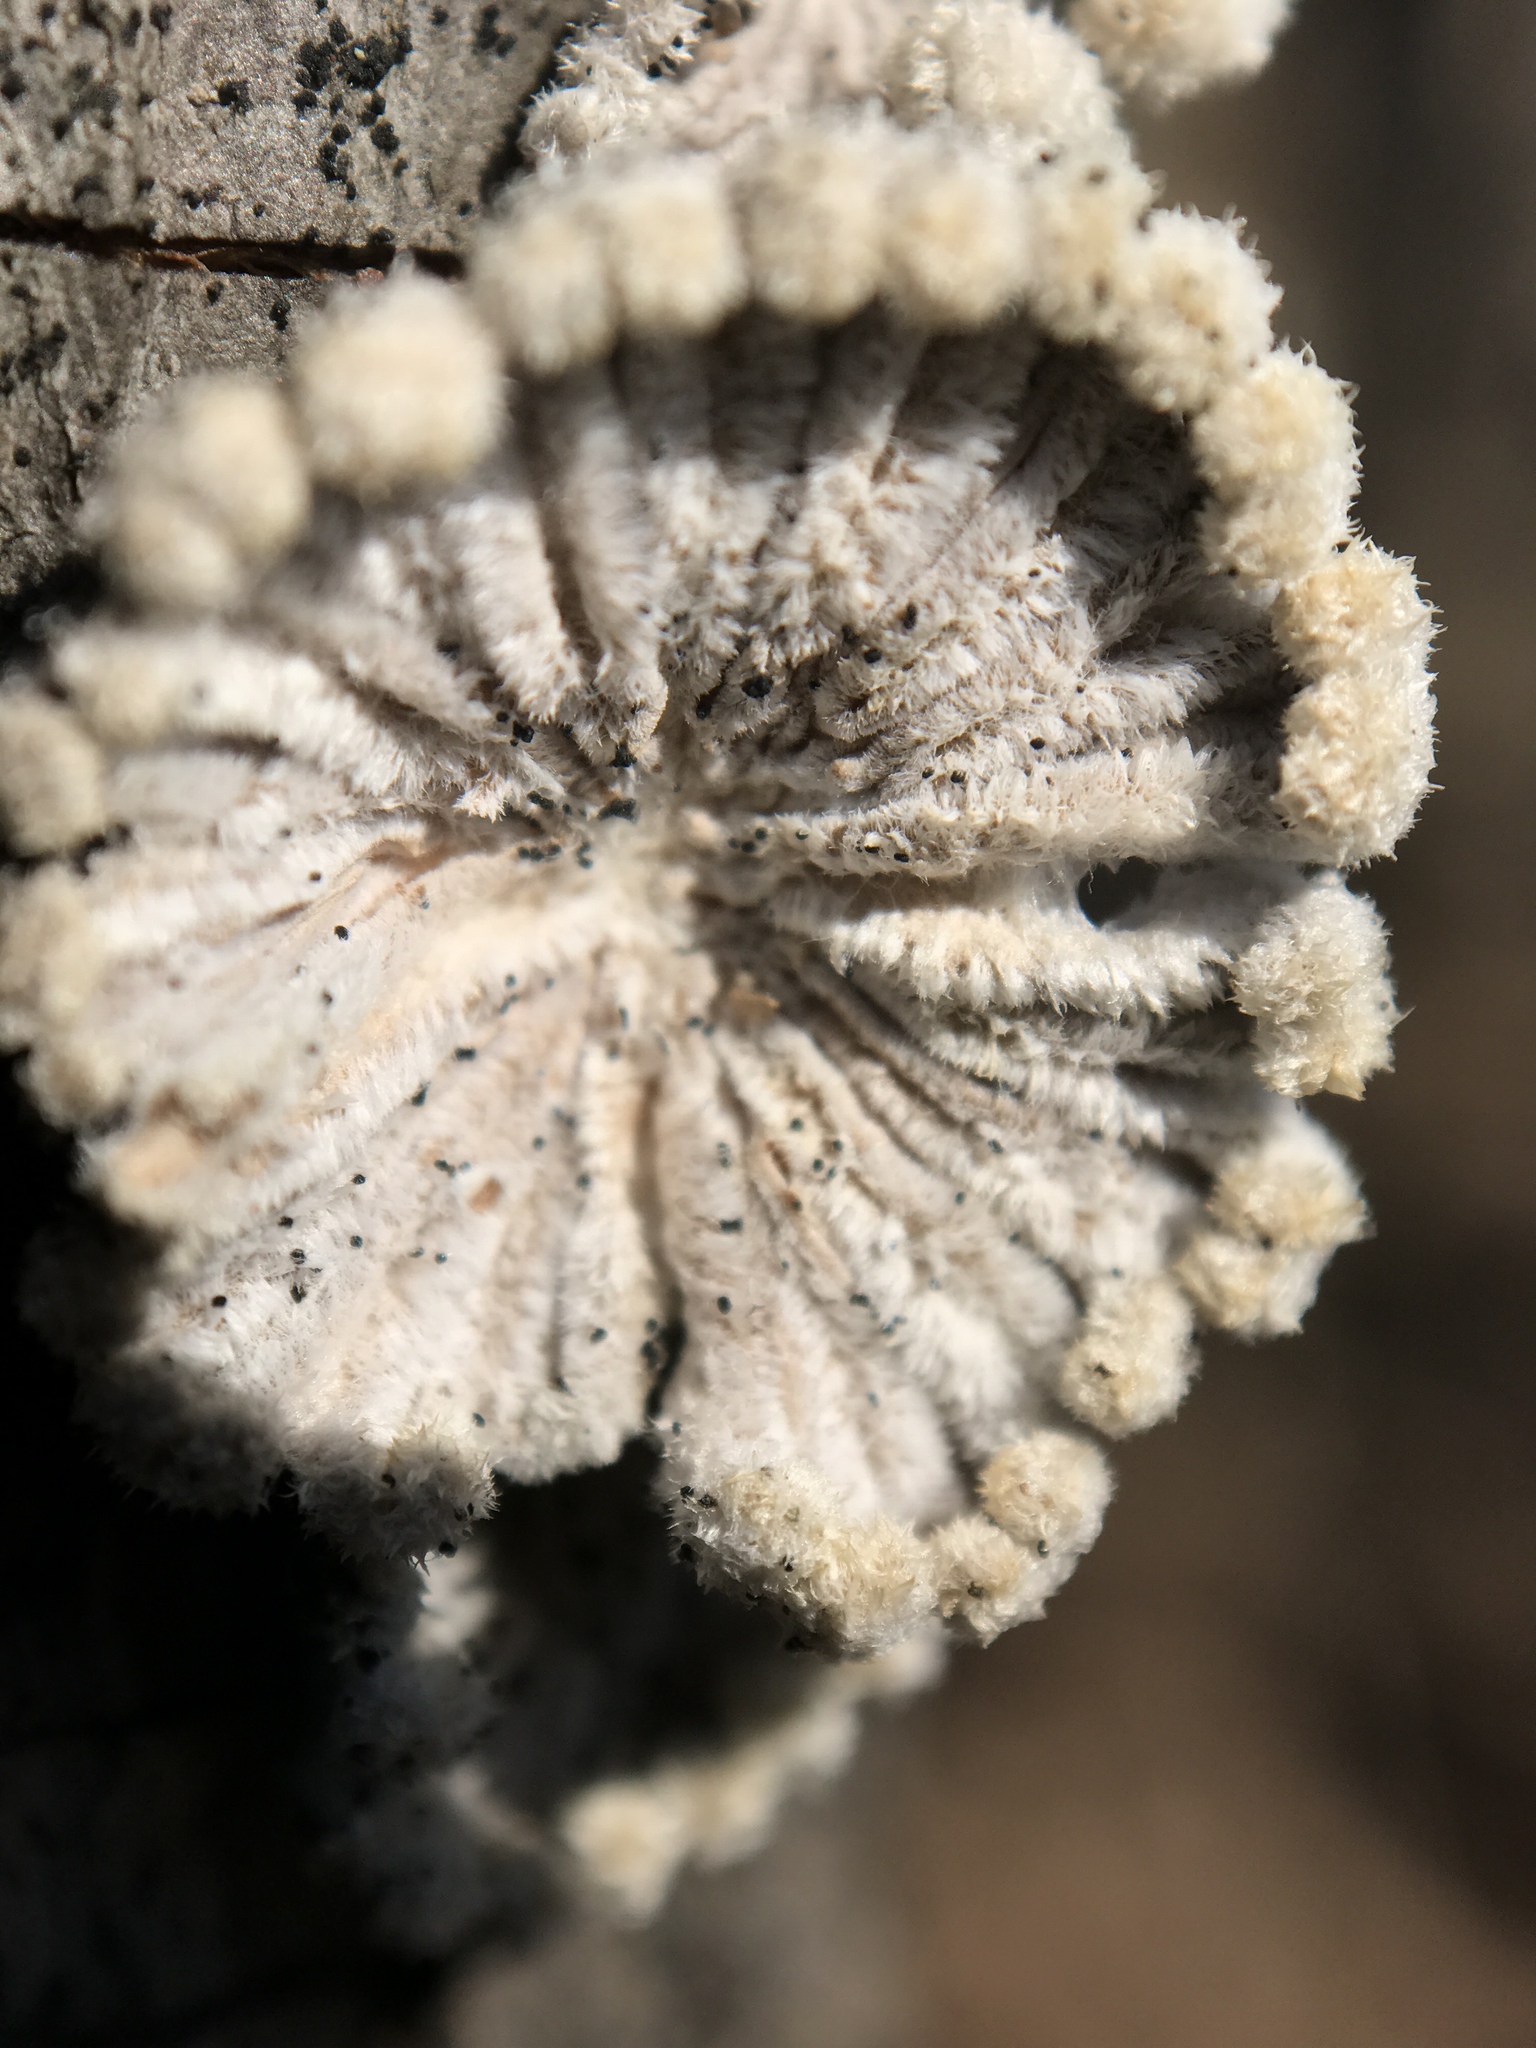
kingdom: Fungi
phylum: Basidiomycota
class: Agaricomycetes
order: Agaricales
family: Schizophyllaceae
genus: Schizophyllum
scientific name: Schizophyllum commune
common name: Common porecrust
